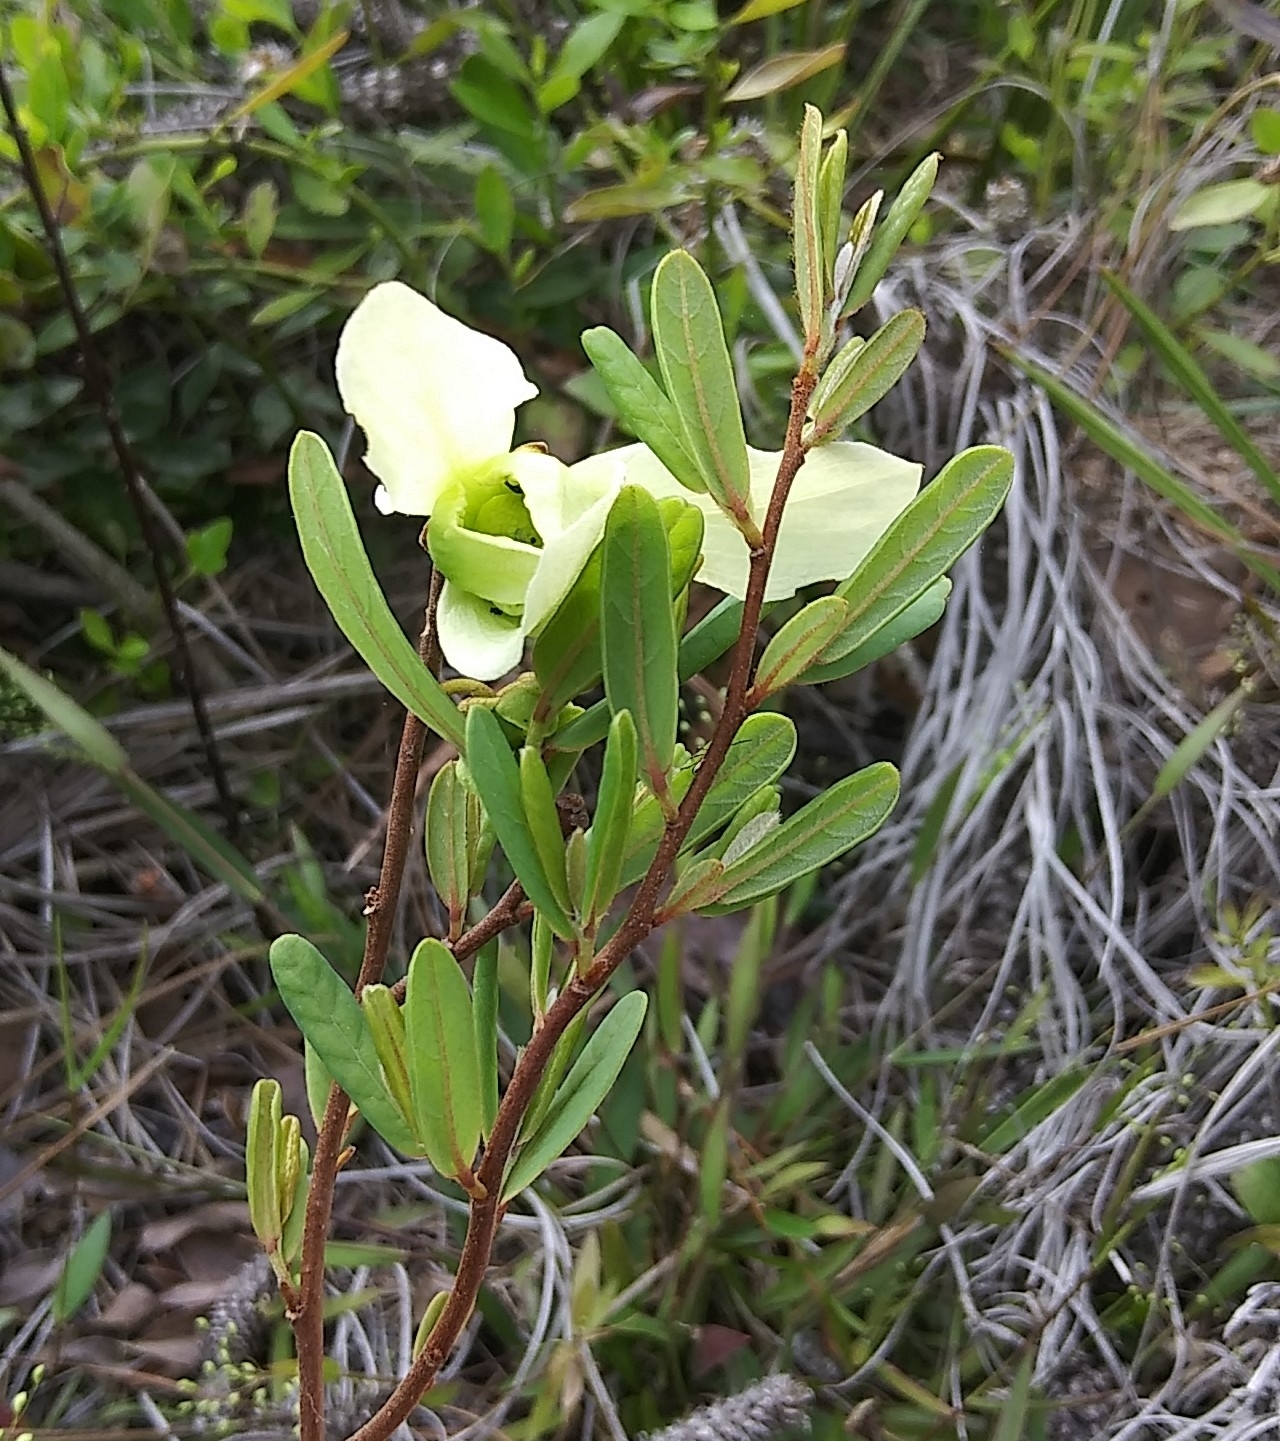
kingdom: Plantae
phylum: Tracheophyta
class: Magnoliopsida
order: Magnoliales
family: Annonaceae
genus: Asimina
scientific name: Asimina reticulata
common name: Flag pawpaw
